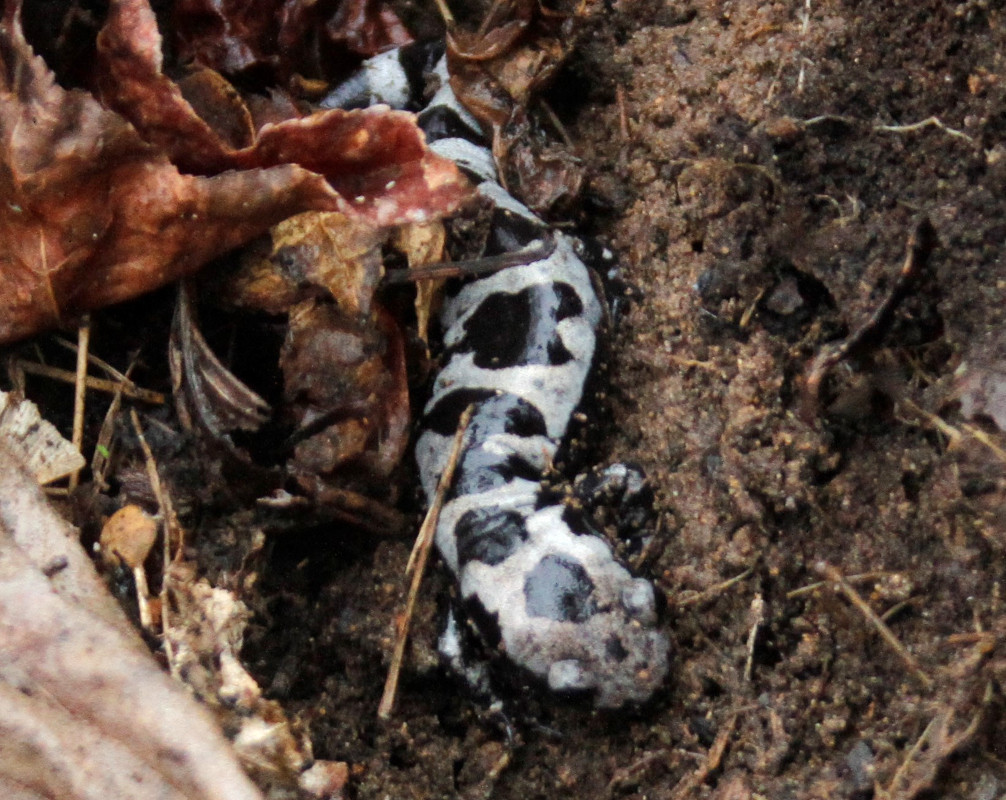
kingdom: Animalia
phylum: Chordata
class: Amphibia
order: Caudata
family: Ambystomatidae
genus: Ambystoma
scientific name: Ambystoma opacum
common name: Marbled salamander
